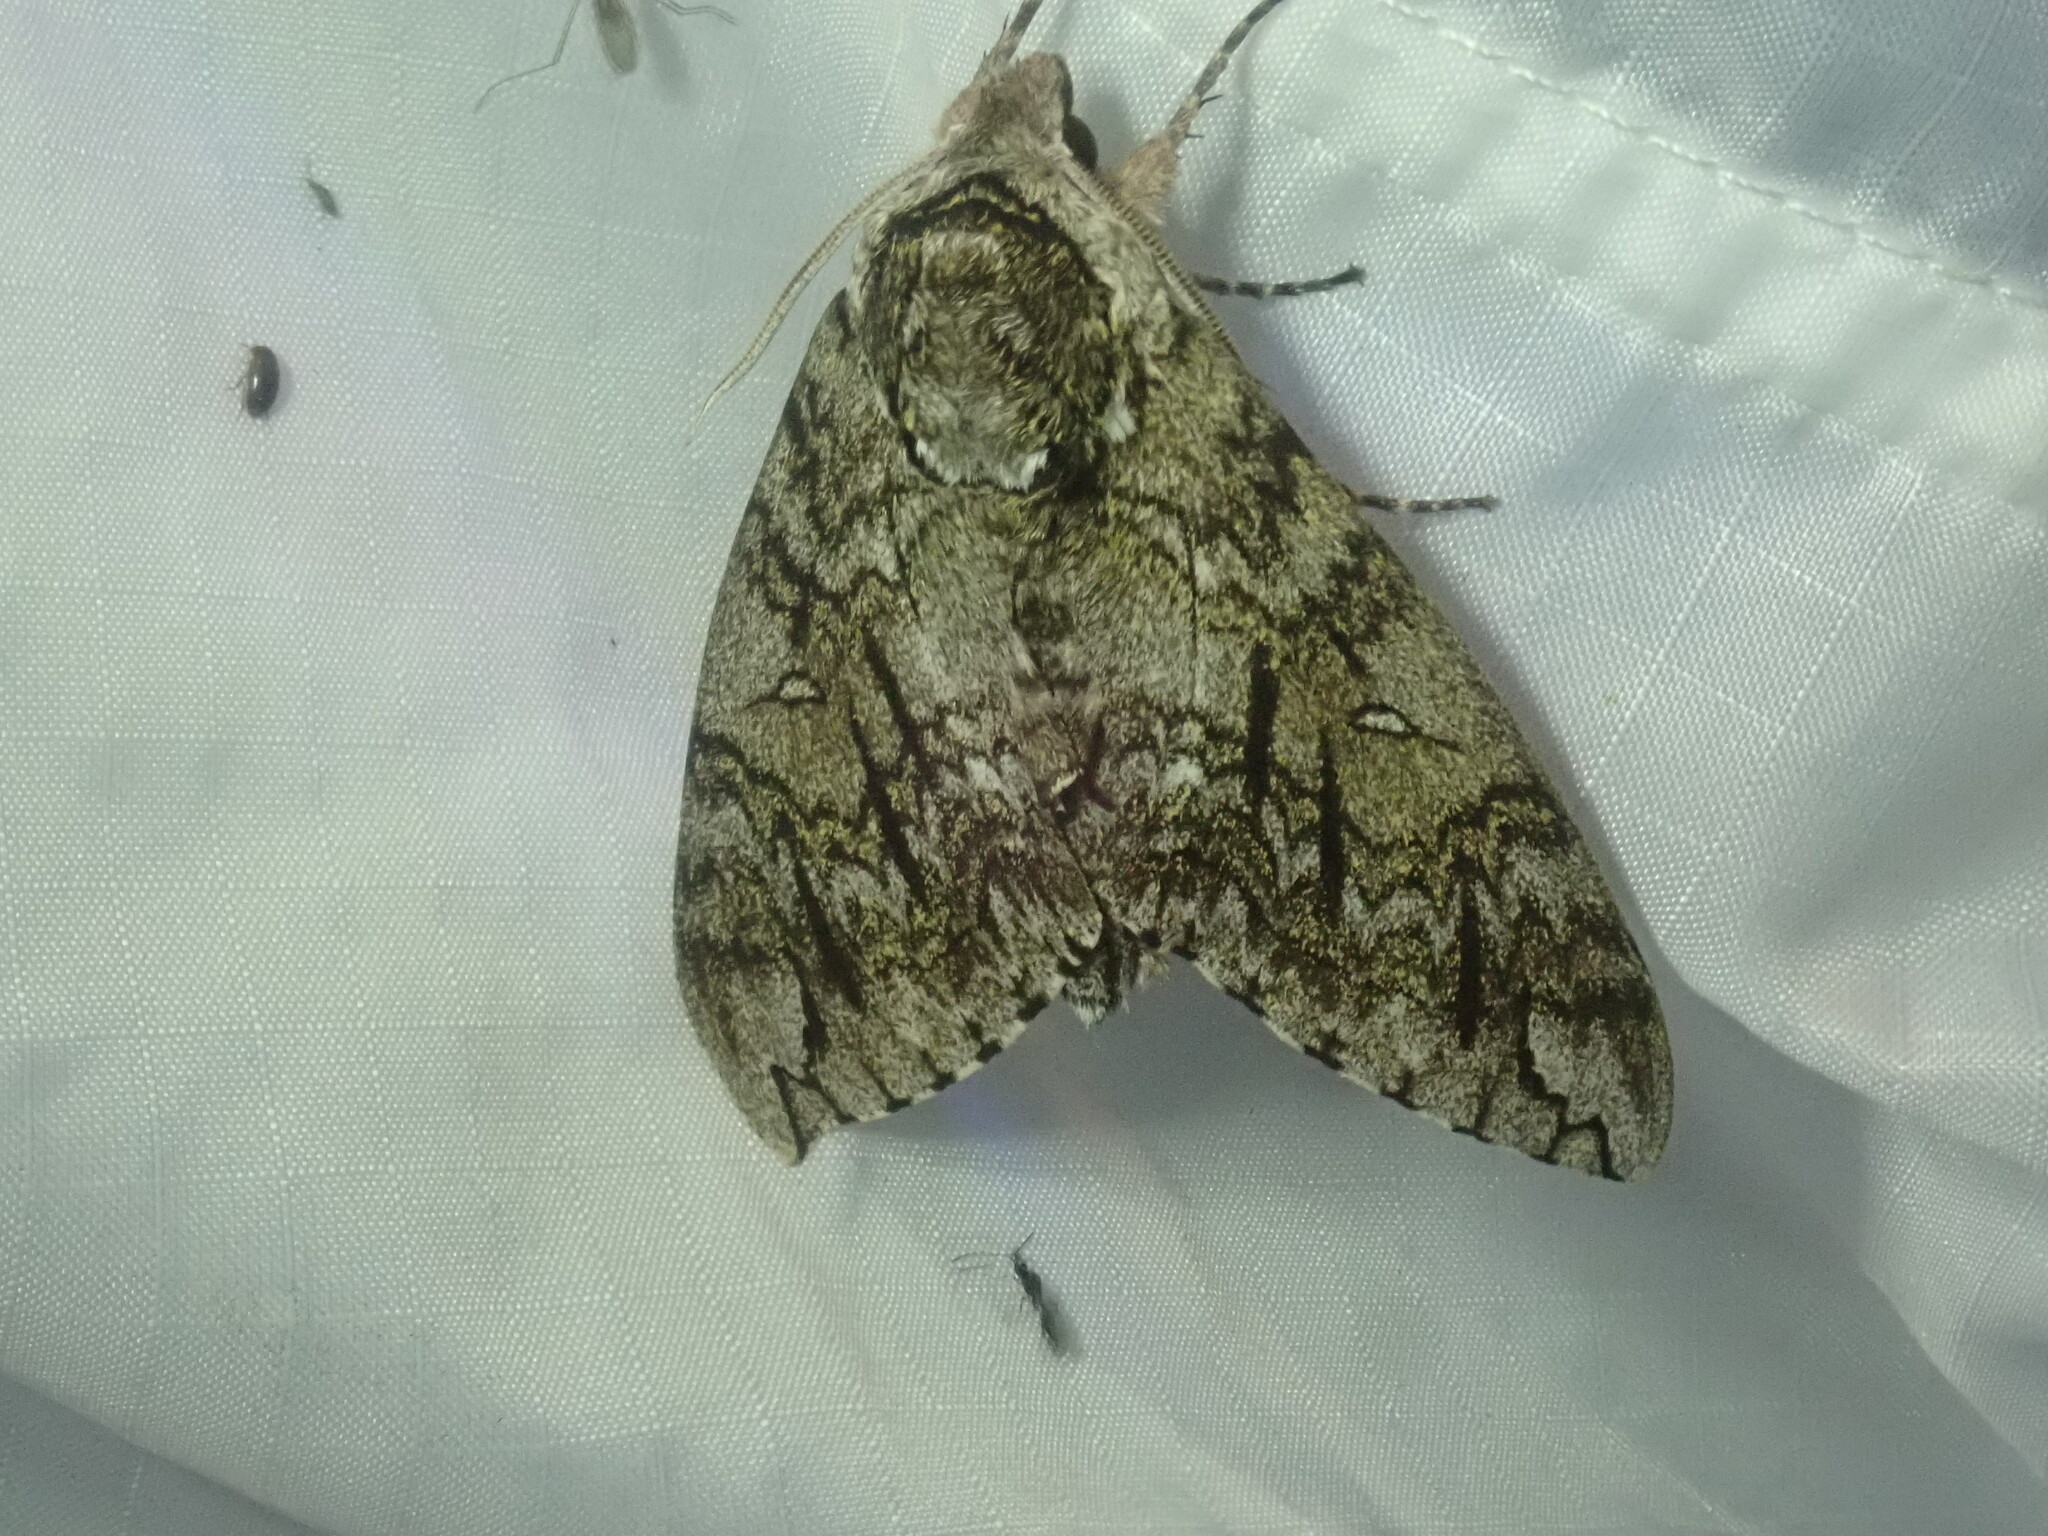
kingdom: Animalia
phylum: Arthropoda
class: Insecta
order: Lepidoptera
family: Sphingidae
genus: Ceratomia
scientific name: Ceratomia undulosa
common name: Waved sphinx
